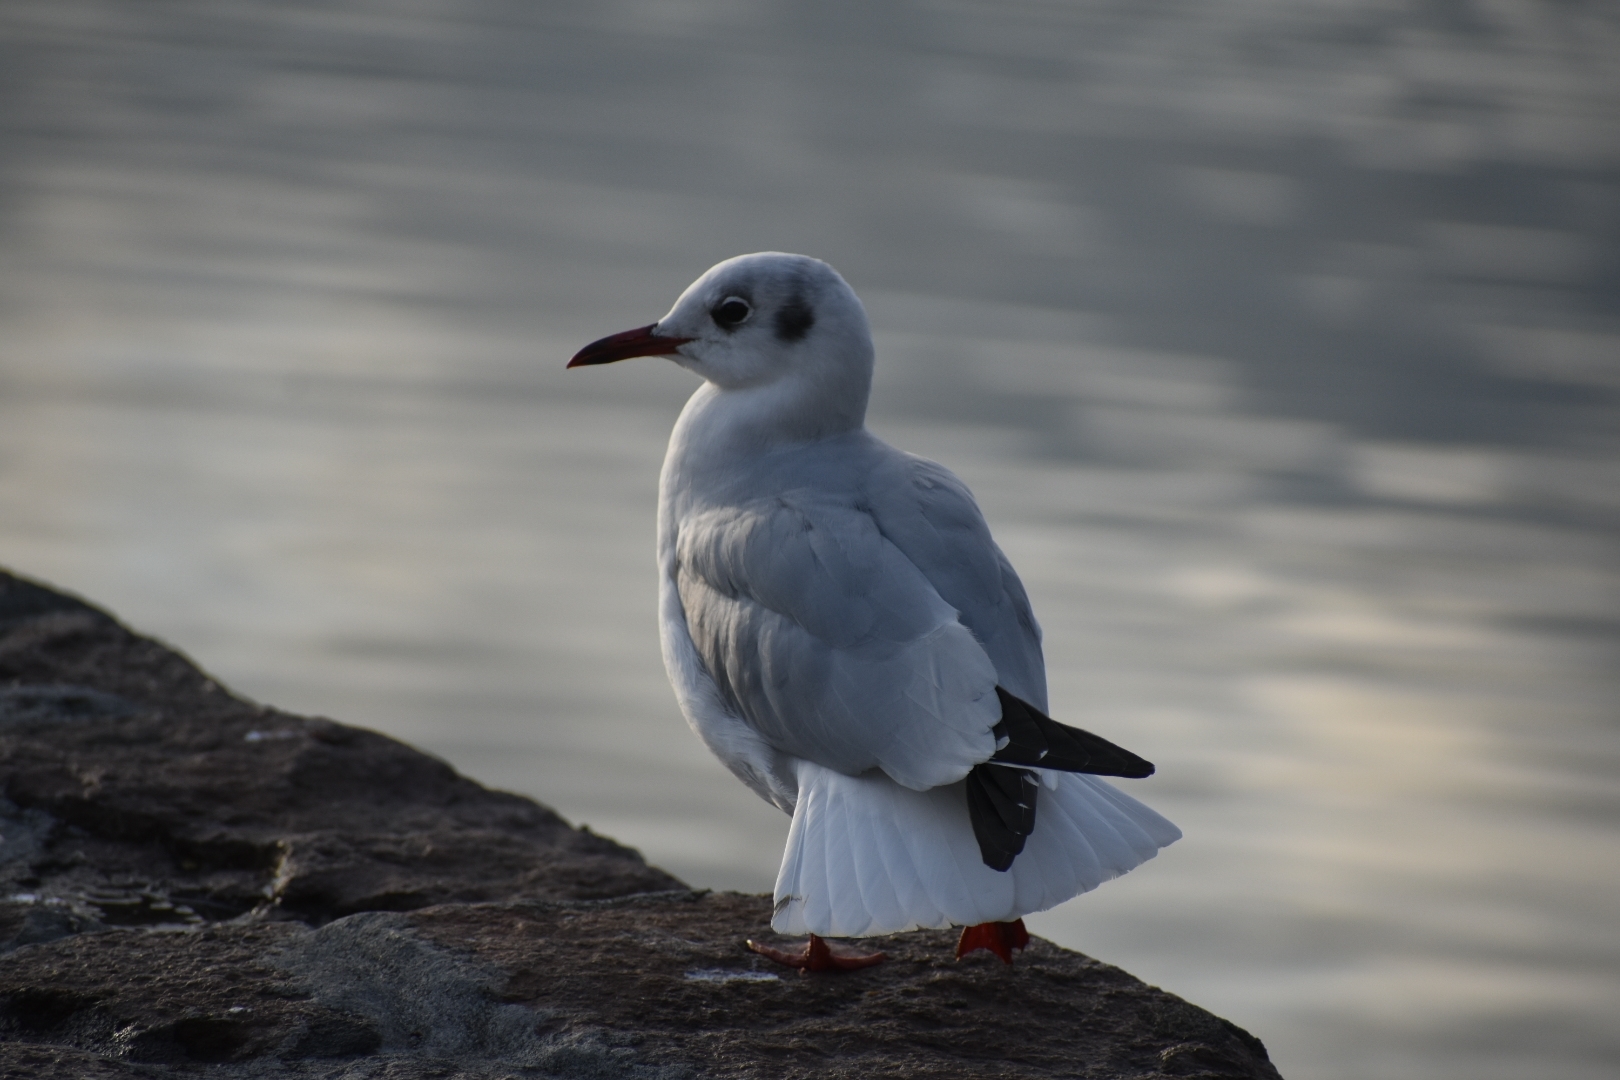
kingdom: Animalia
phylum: Chordata
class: Aves
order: Charadriiformes
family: Laridae
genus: Chroicocephalus
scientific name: Chroicocephalus ridibundus
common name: Black-headed gull
